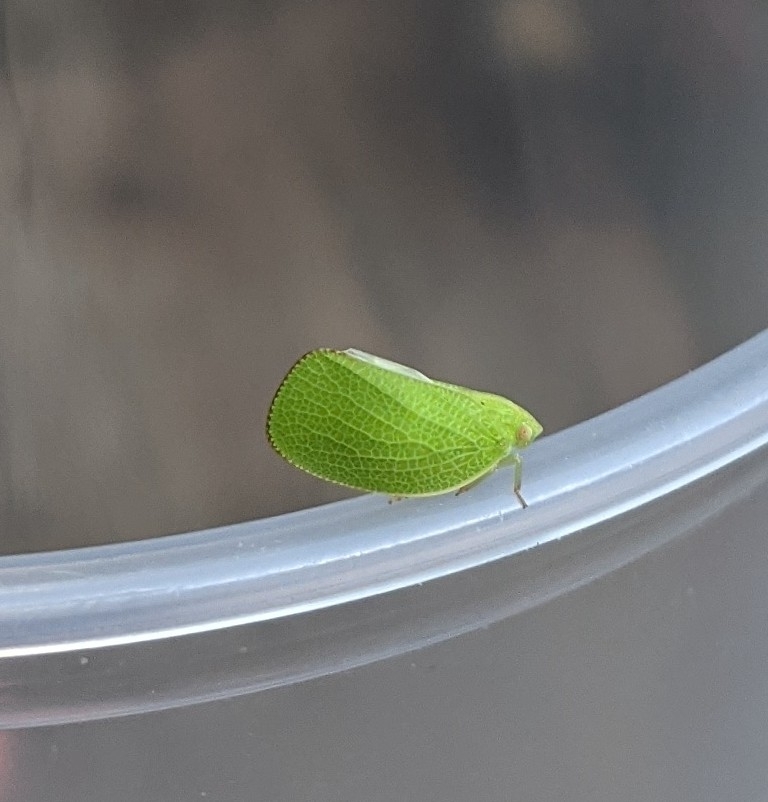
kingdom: Animalia
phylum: Arthropoda
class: Insecta
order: Hemiptera
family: Acanaloniidae
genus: Acanalonia
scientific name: Acanalonia conica
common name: Green cone-headed planthopper
